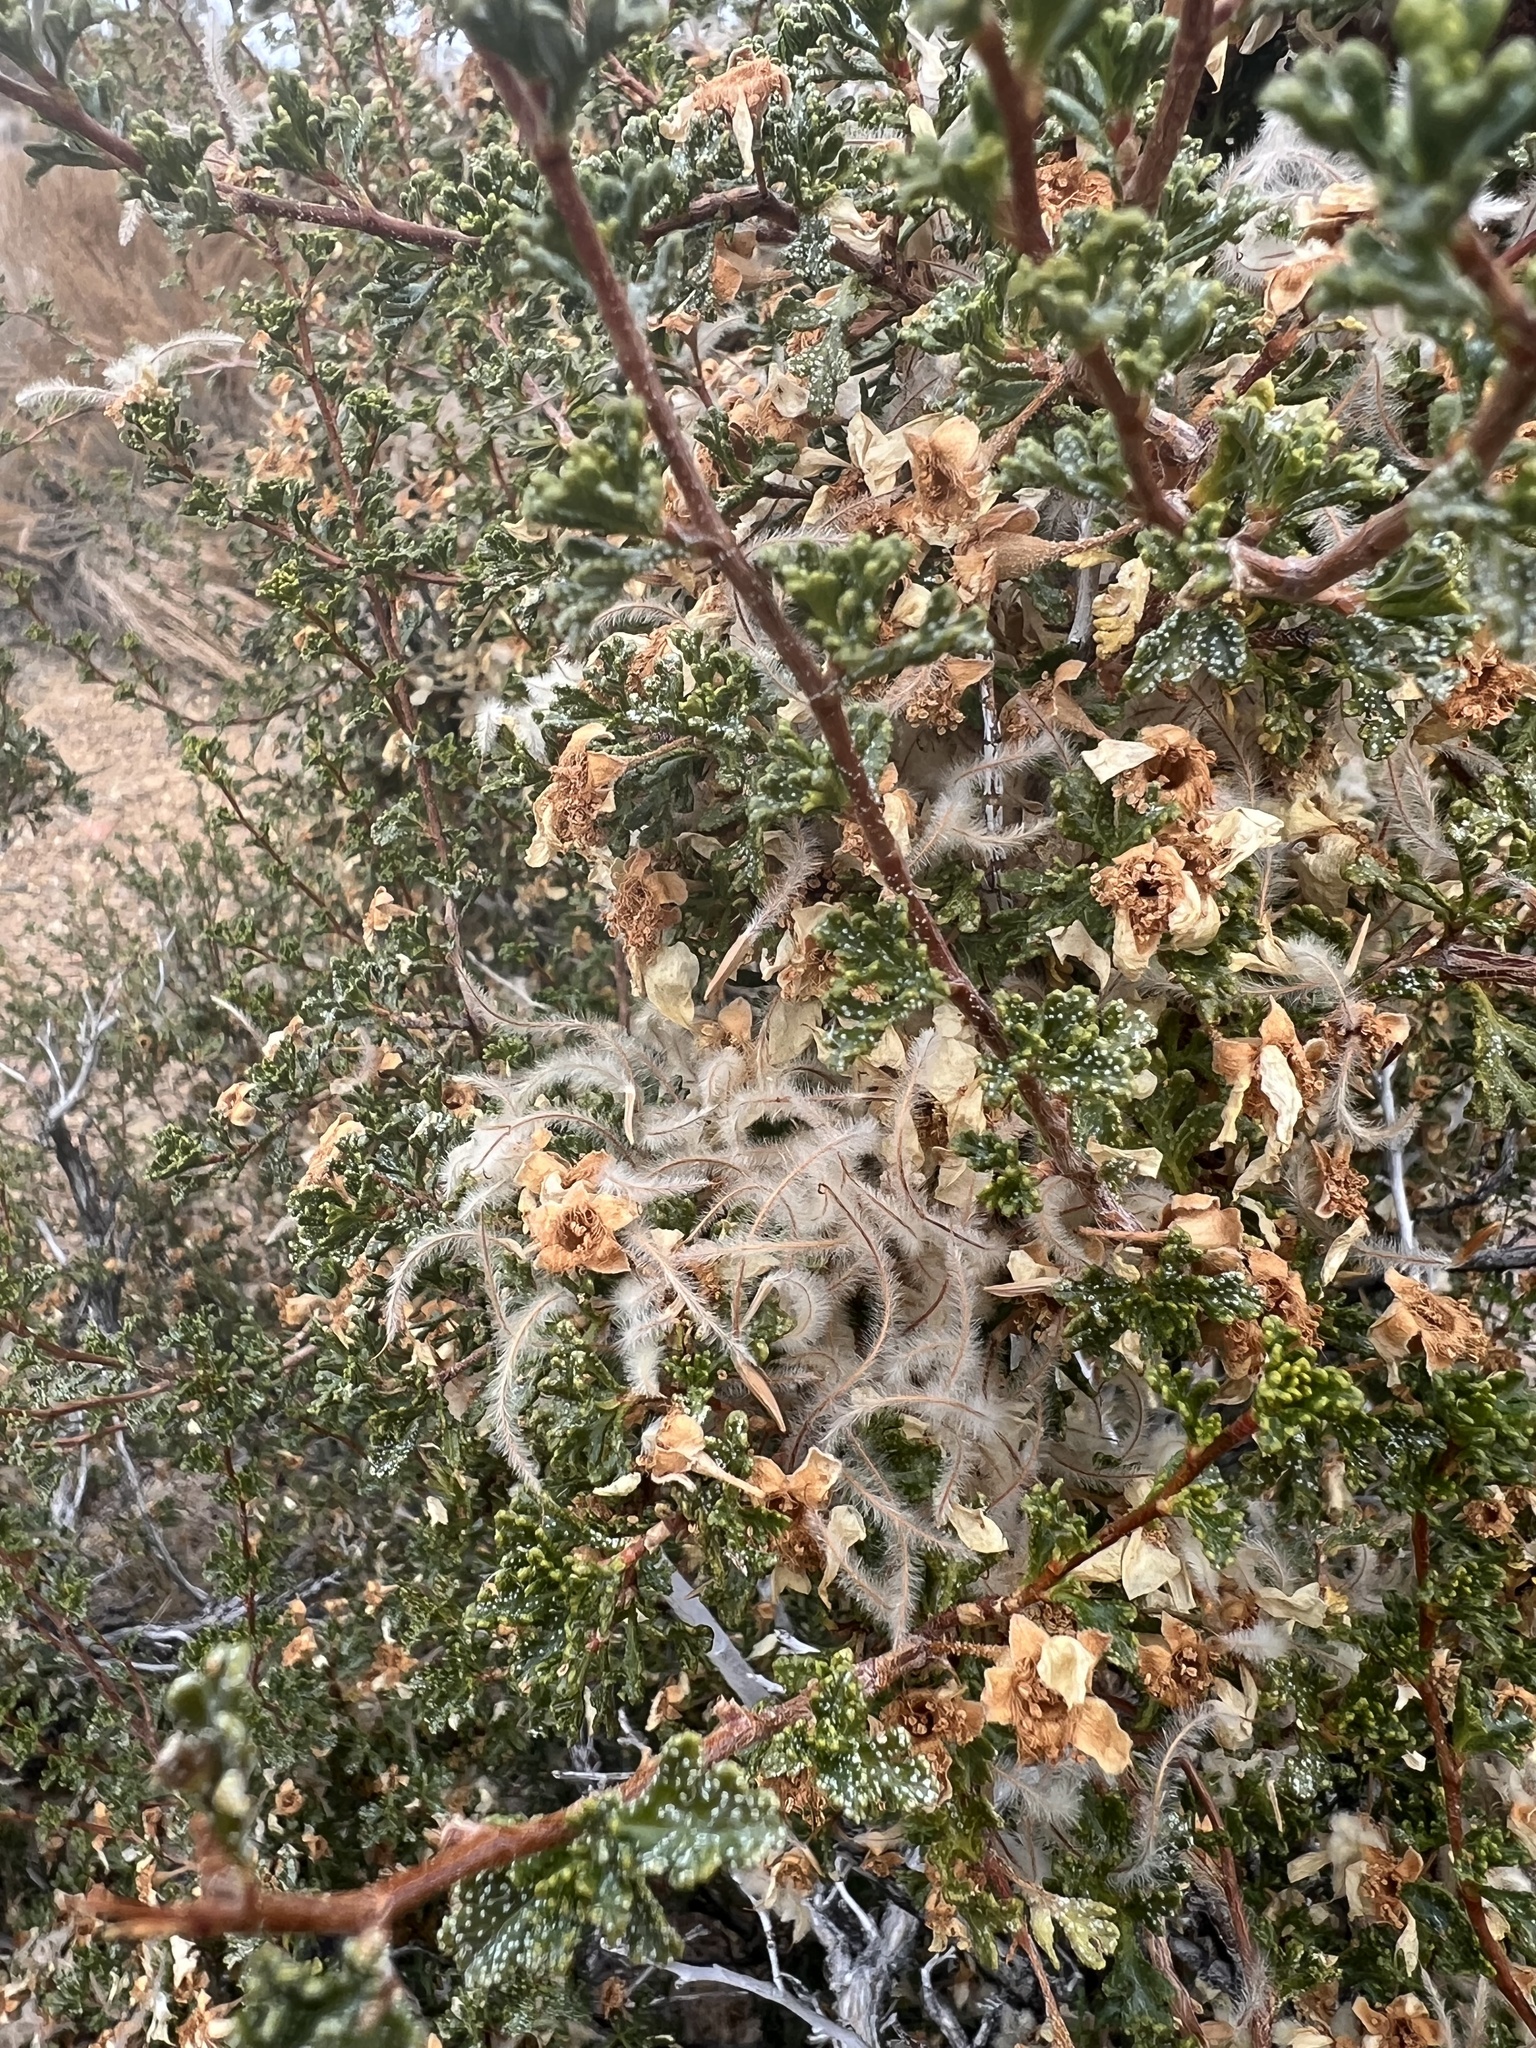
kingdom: Plantae
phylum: Tracheophyta
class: Magnoliopsida
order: Rosales
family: Rosaceae
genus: Purshia
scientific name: Purshia stansburiana
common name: Stansbury's cliffrose
